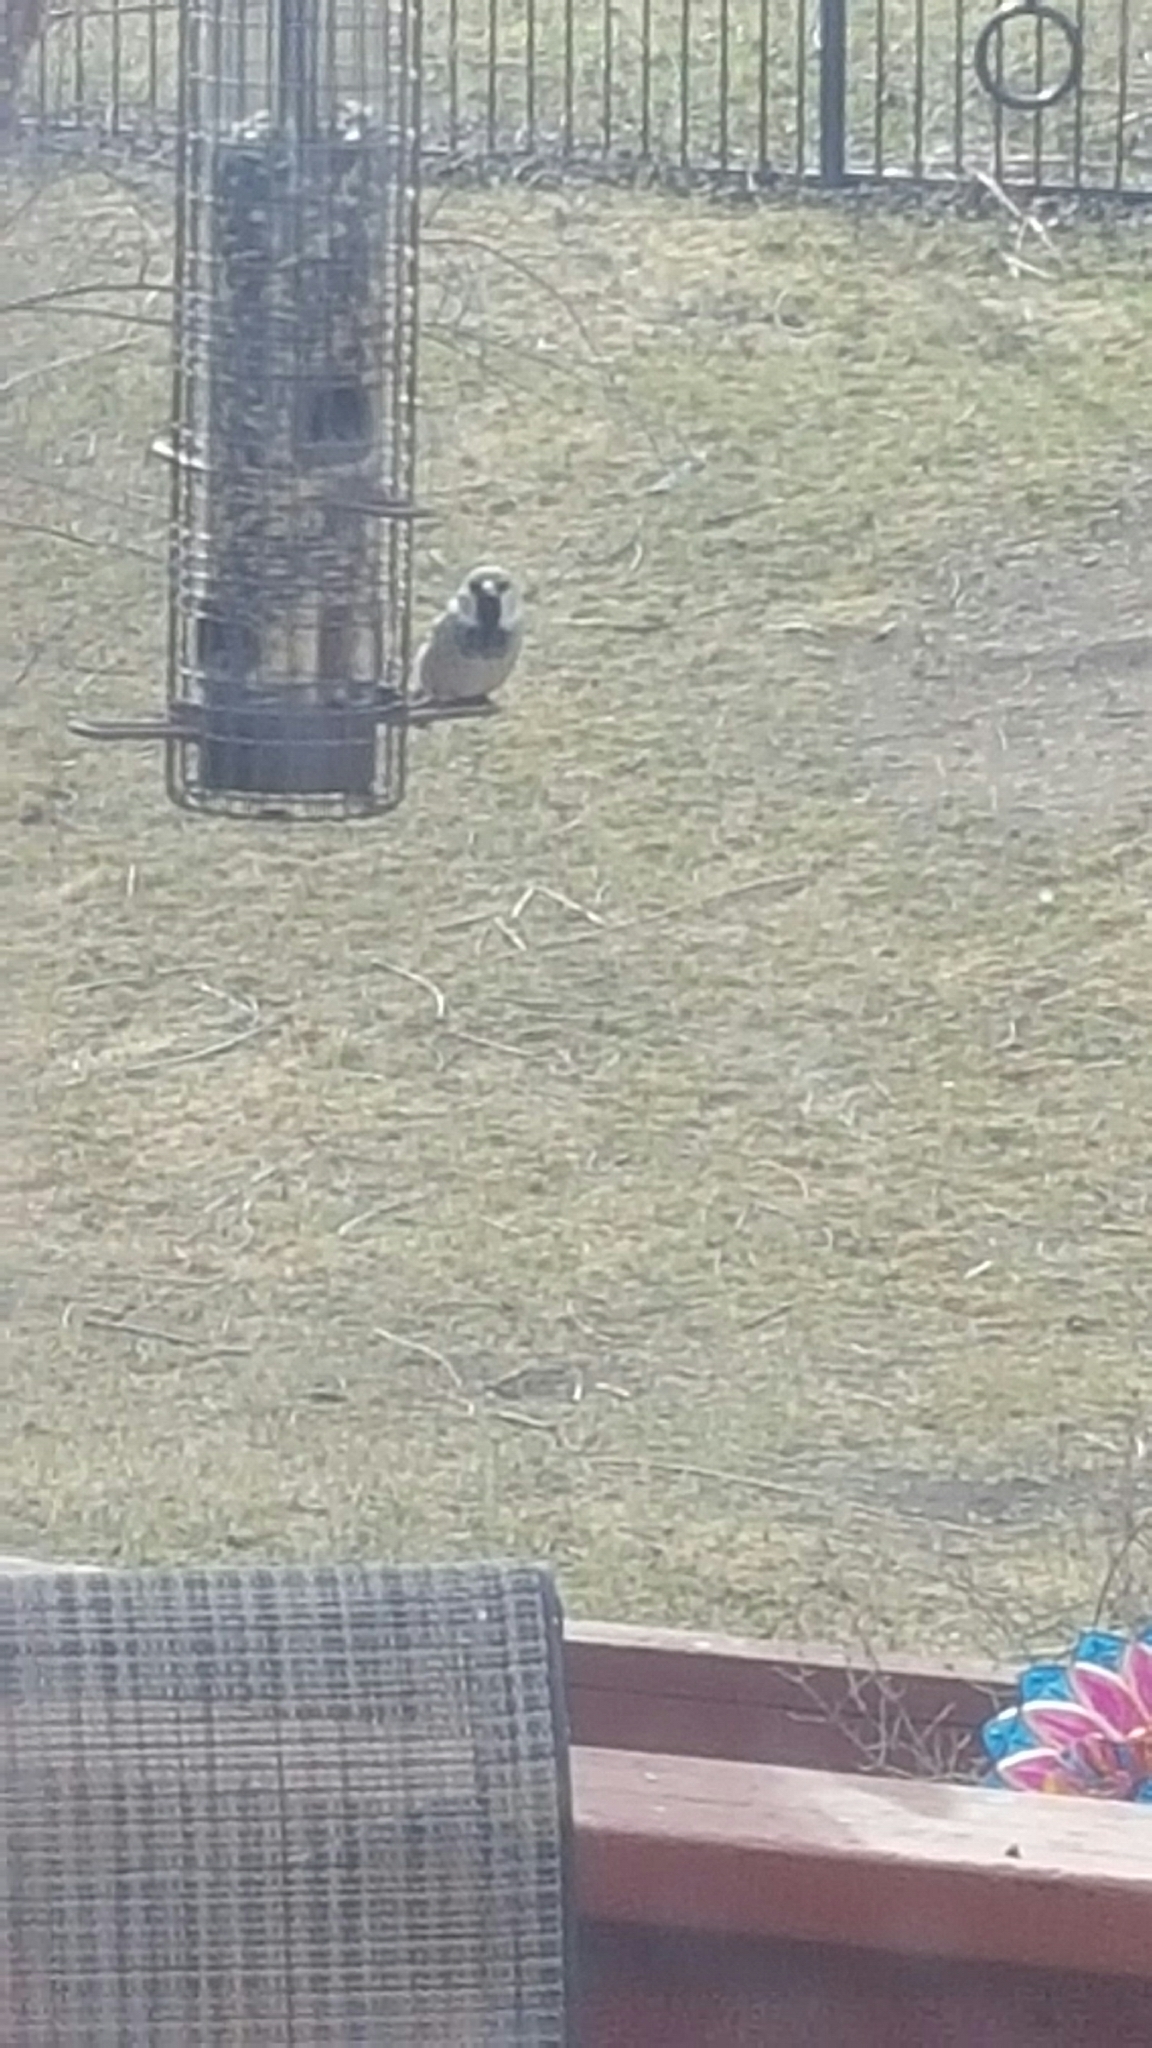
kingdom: Animalia
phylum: Chordata
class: Aves
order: Passeriformes
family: Passeridae
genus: Passer
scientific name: Passer domesticus
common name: House sparrow
